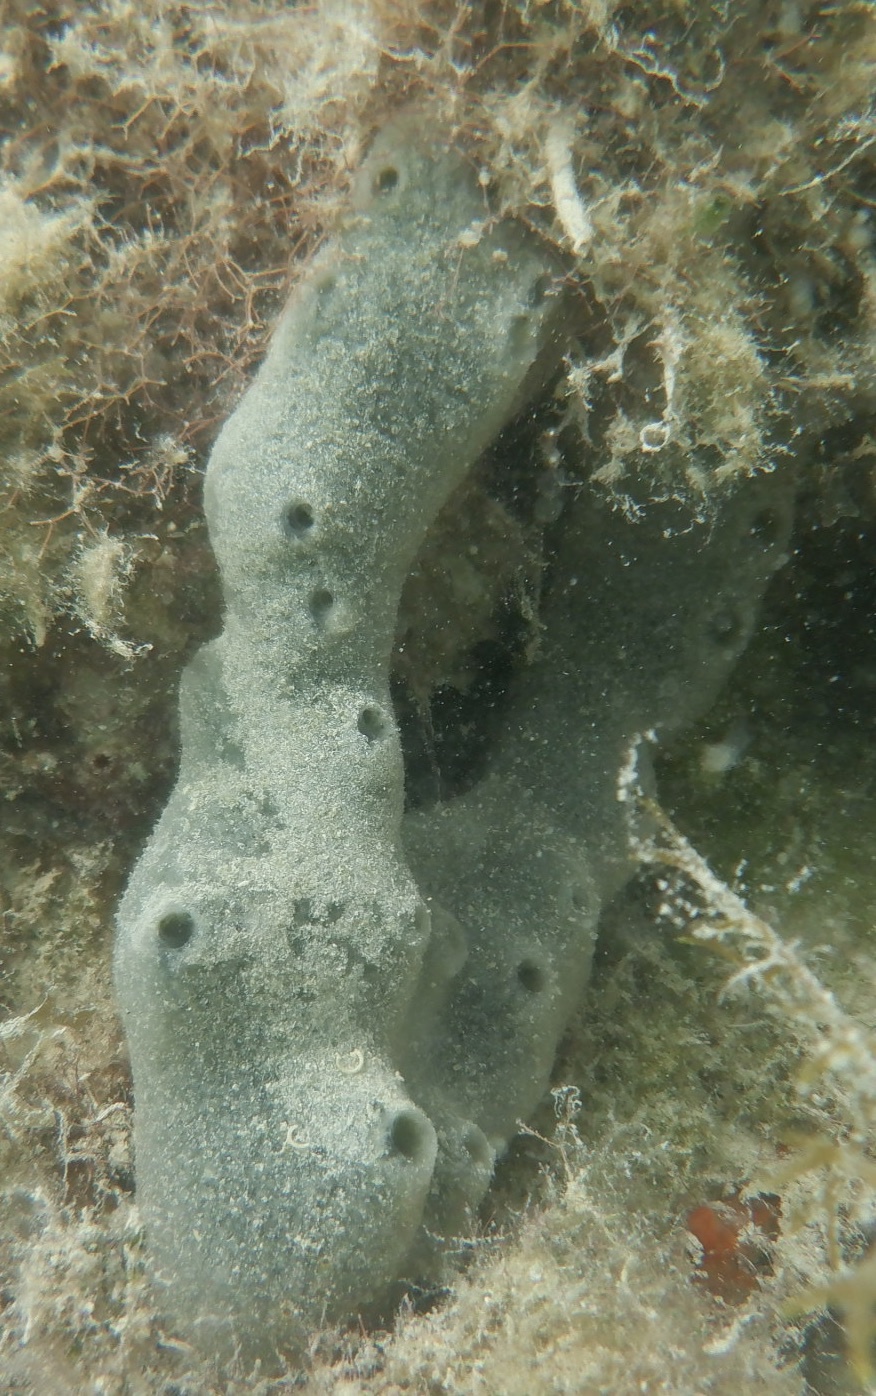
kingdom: Animalia
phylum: Porifera
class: Demospongiae
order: Haplosclerida
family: Niphatidae
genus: Niphates
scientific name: Niphates caycedoi
